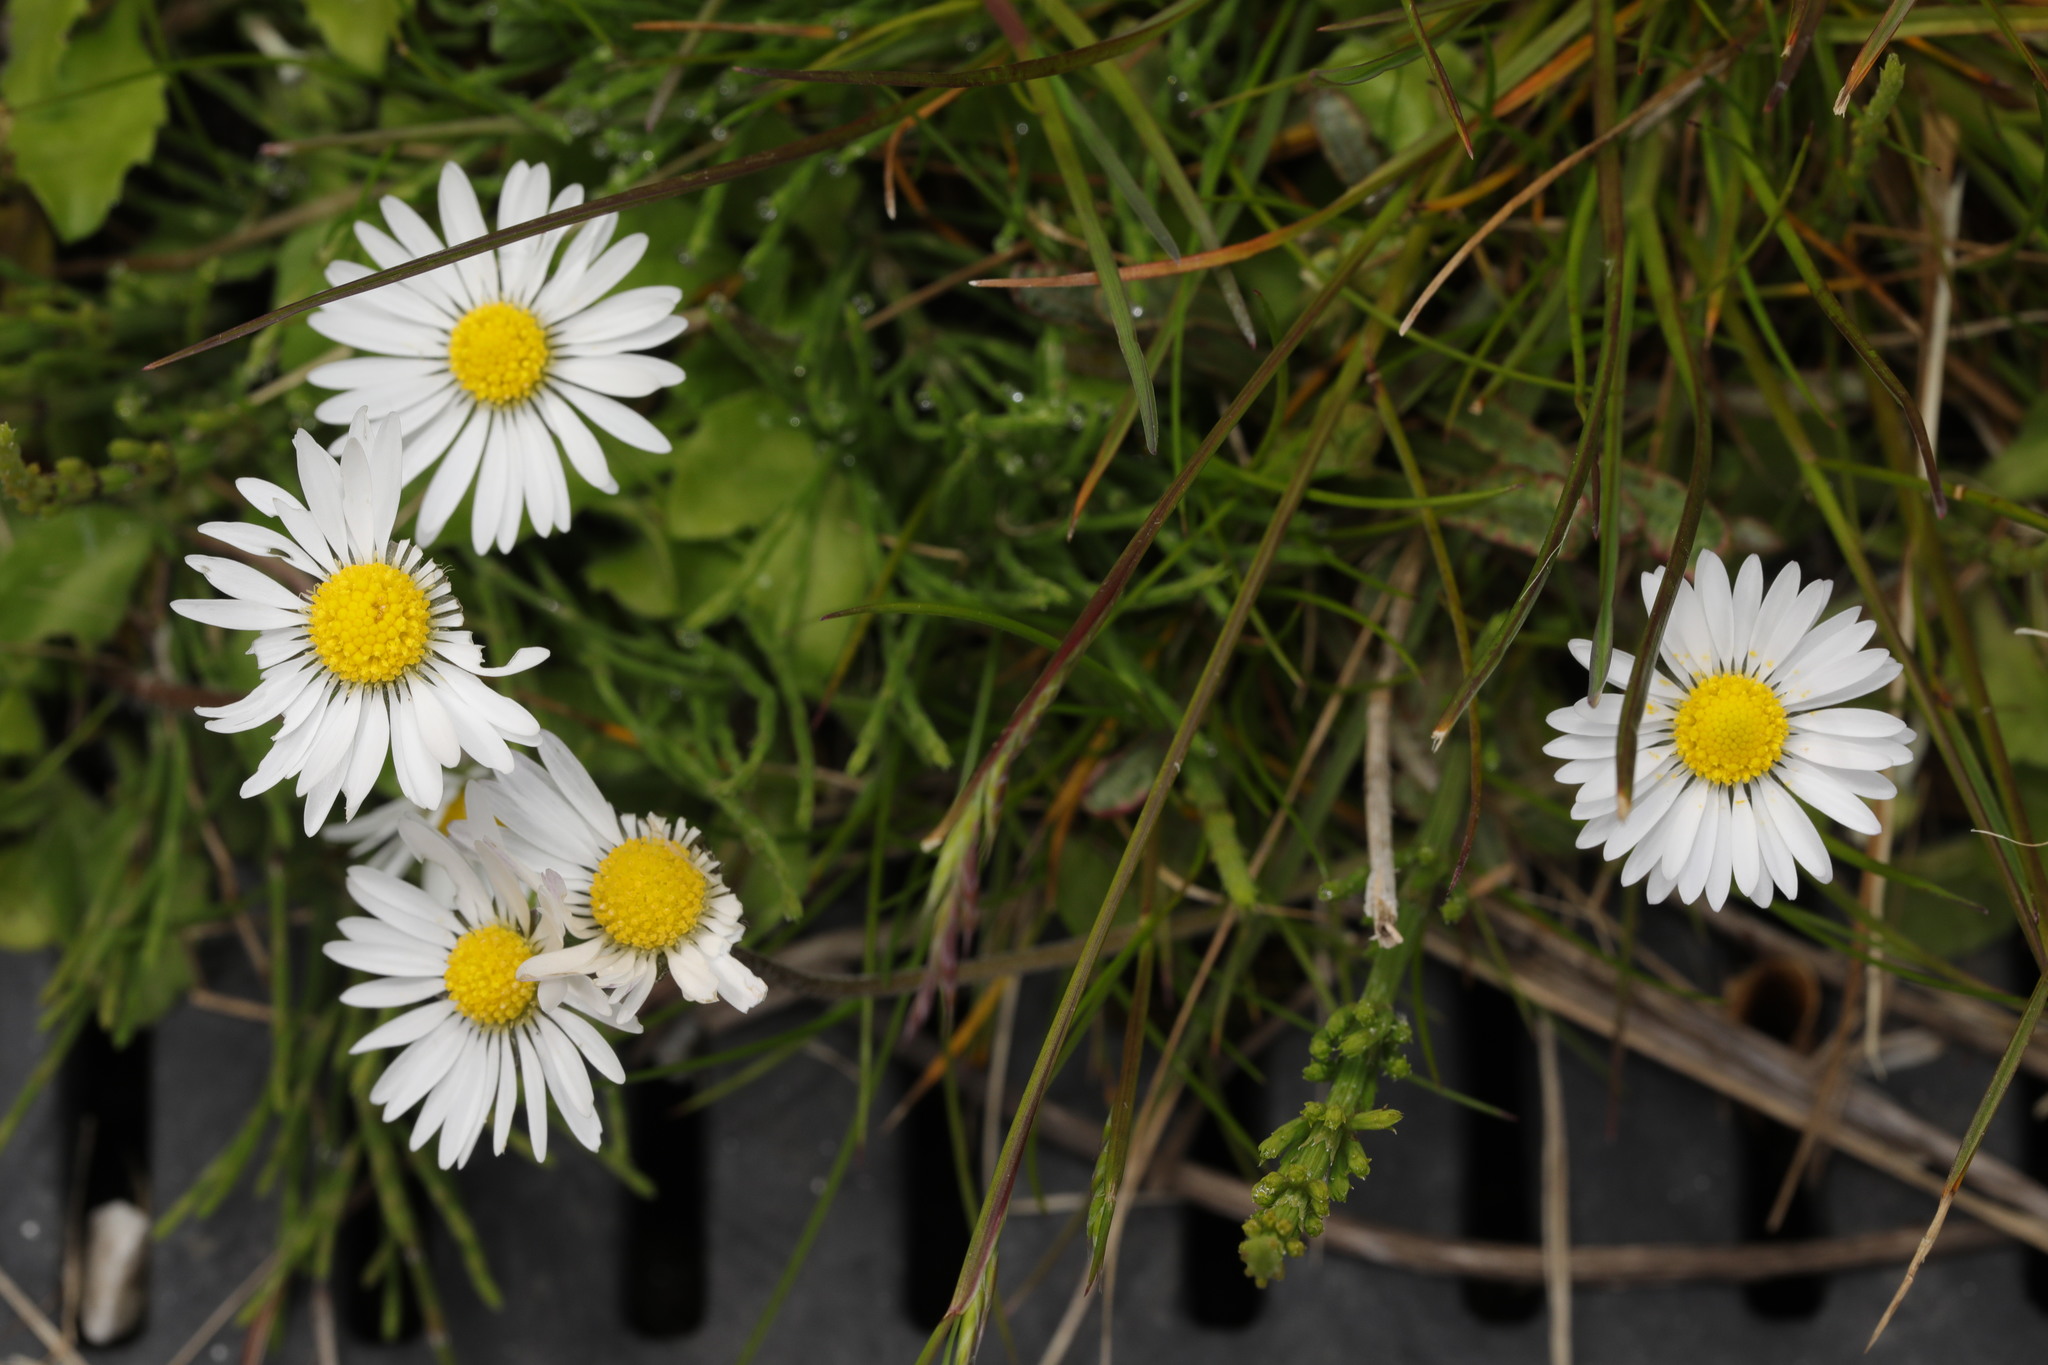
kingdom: Plantae
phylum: Tracheophyta
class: Magnoliopsida
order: Asterales
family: Asteraceae
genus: Bellis
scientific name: Bellis perennis
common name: Lawndaisy
